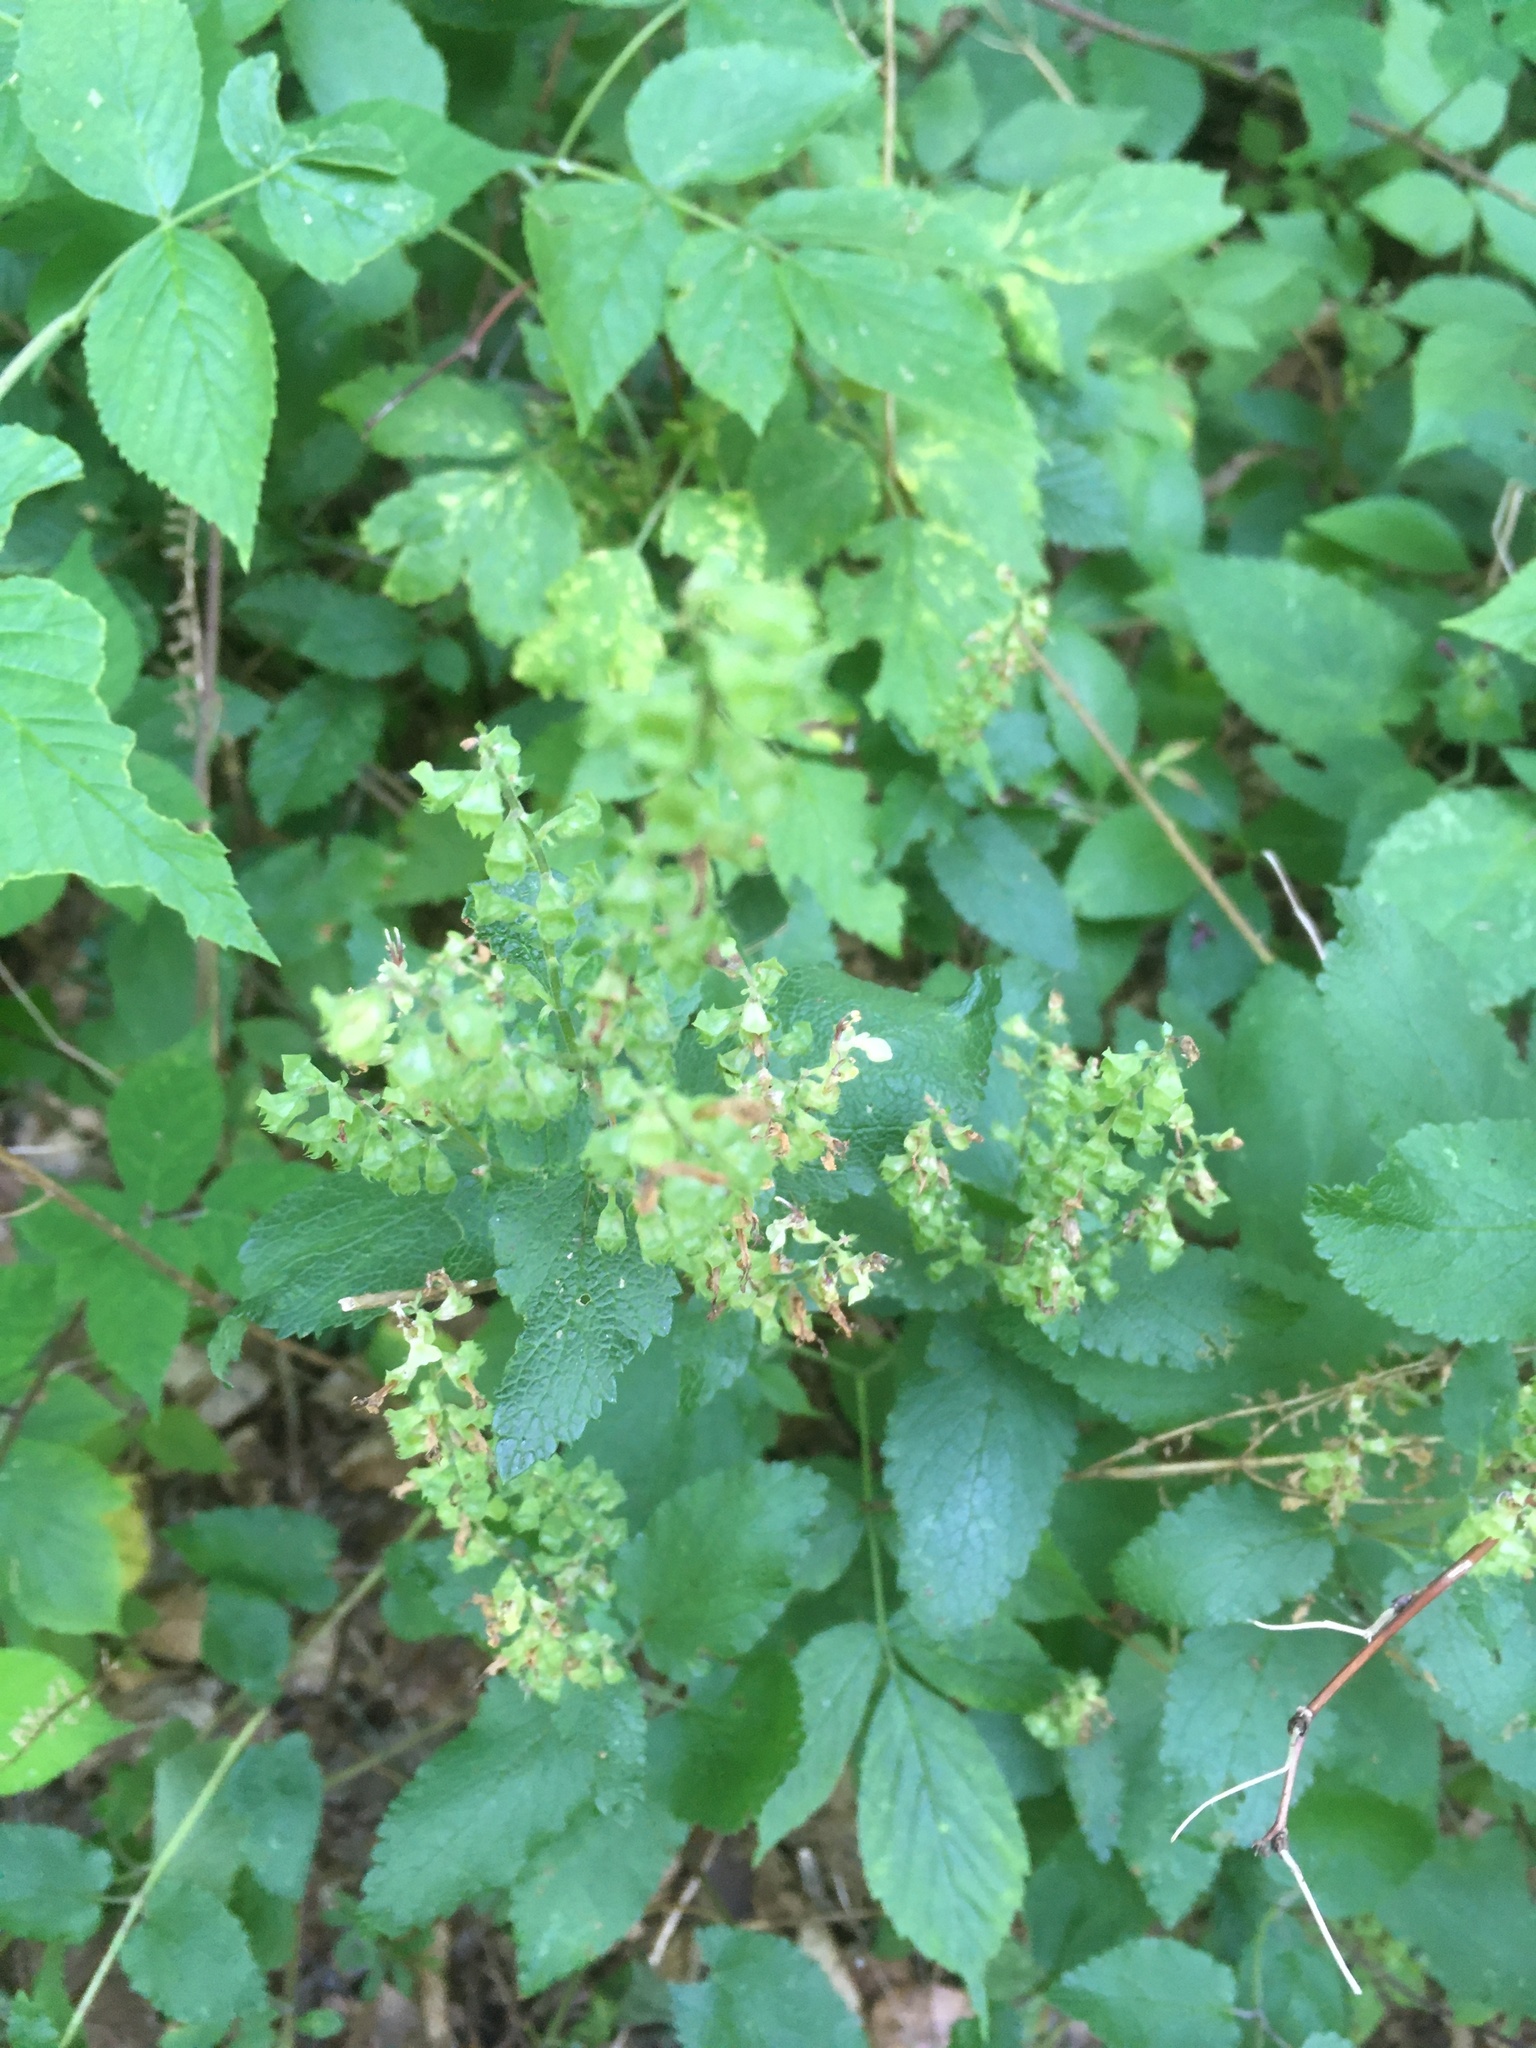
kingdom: Plantae
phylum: Tracheophyta
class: Magnoliopsida
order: Lamiales
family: Lamiaceae
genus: Teucrium
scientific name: Teucrium scorodonia
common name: Woodland germander
